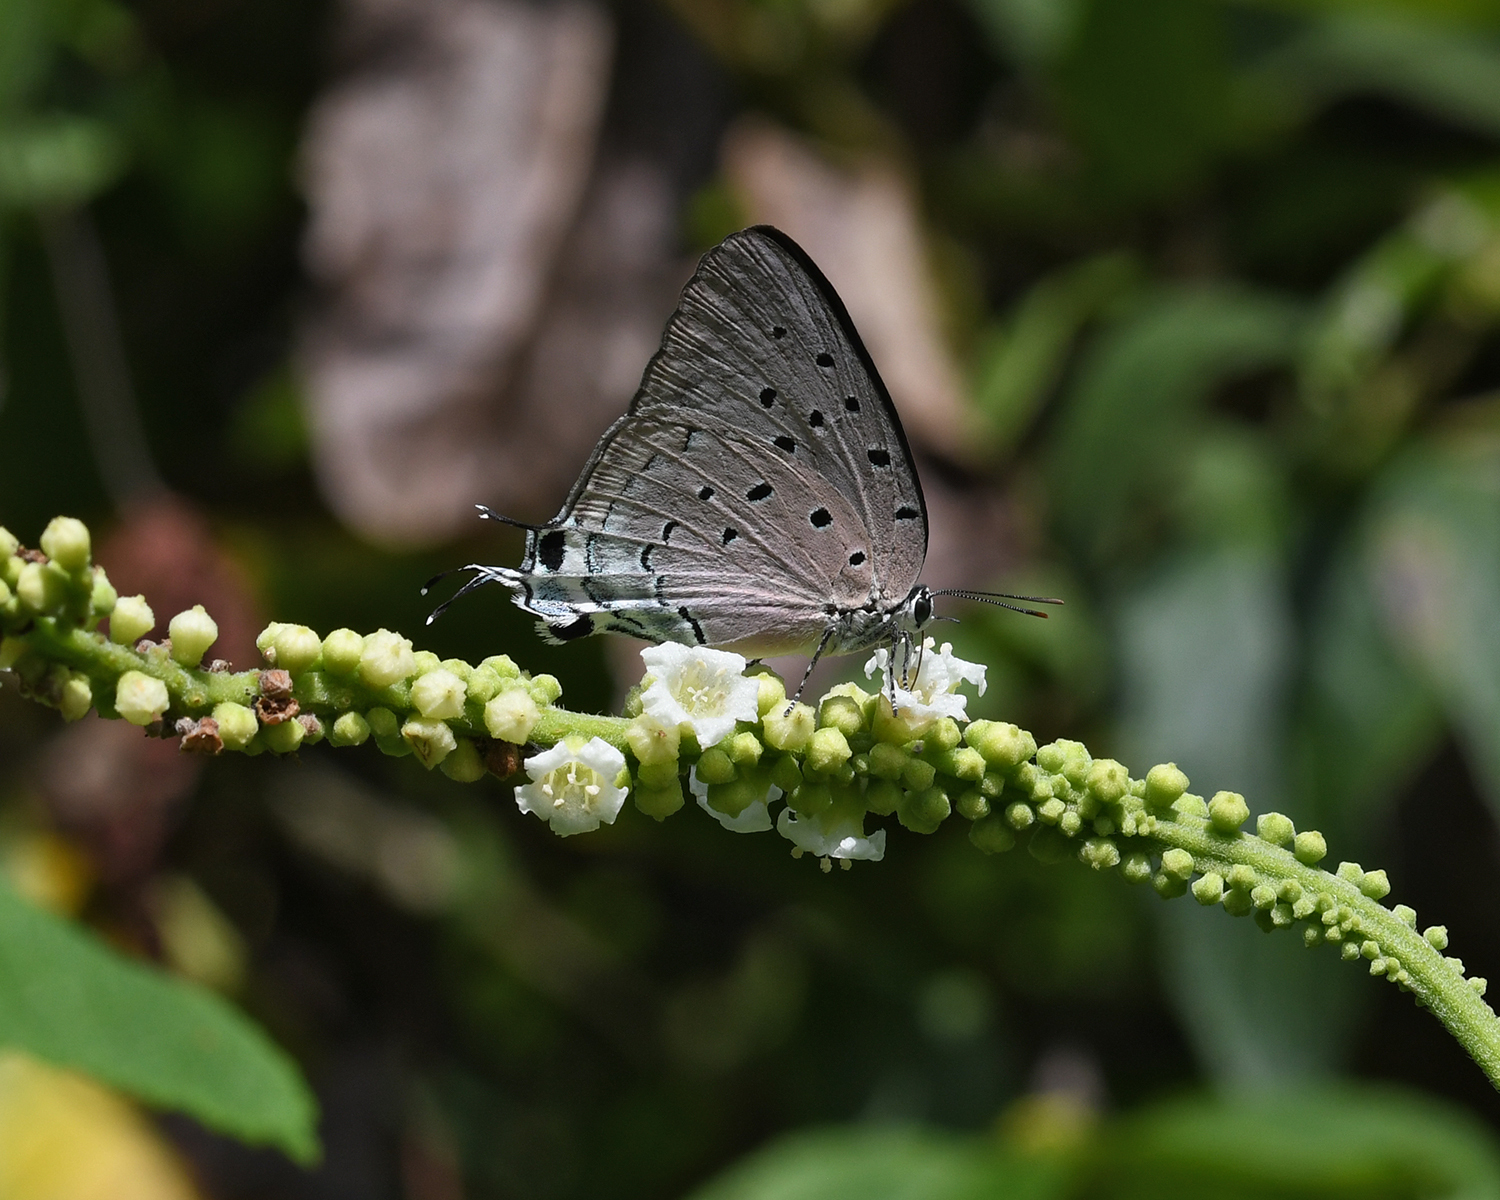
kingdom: Animalia
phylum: Arthropoda
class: Insecta
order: Lepidoptera
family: Lycaenidae
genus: Pseudolycaena
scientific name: Pseudolycaena marsyas
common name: Marsyas hairstreak
